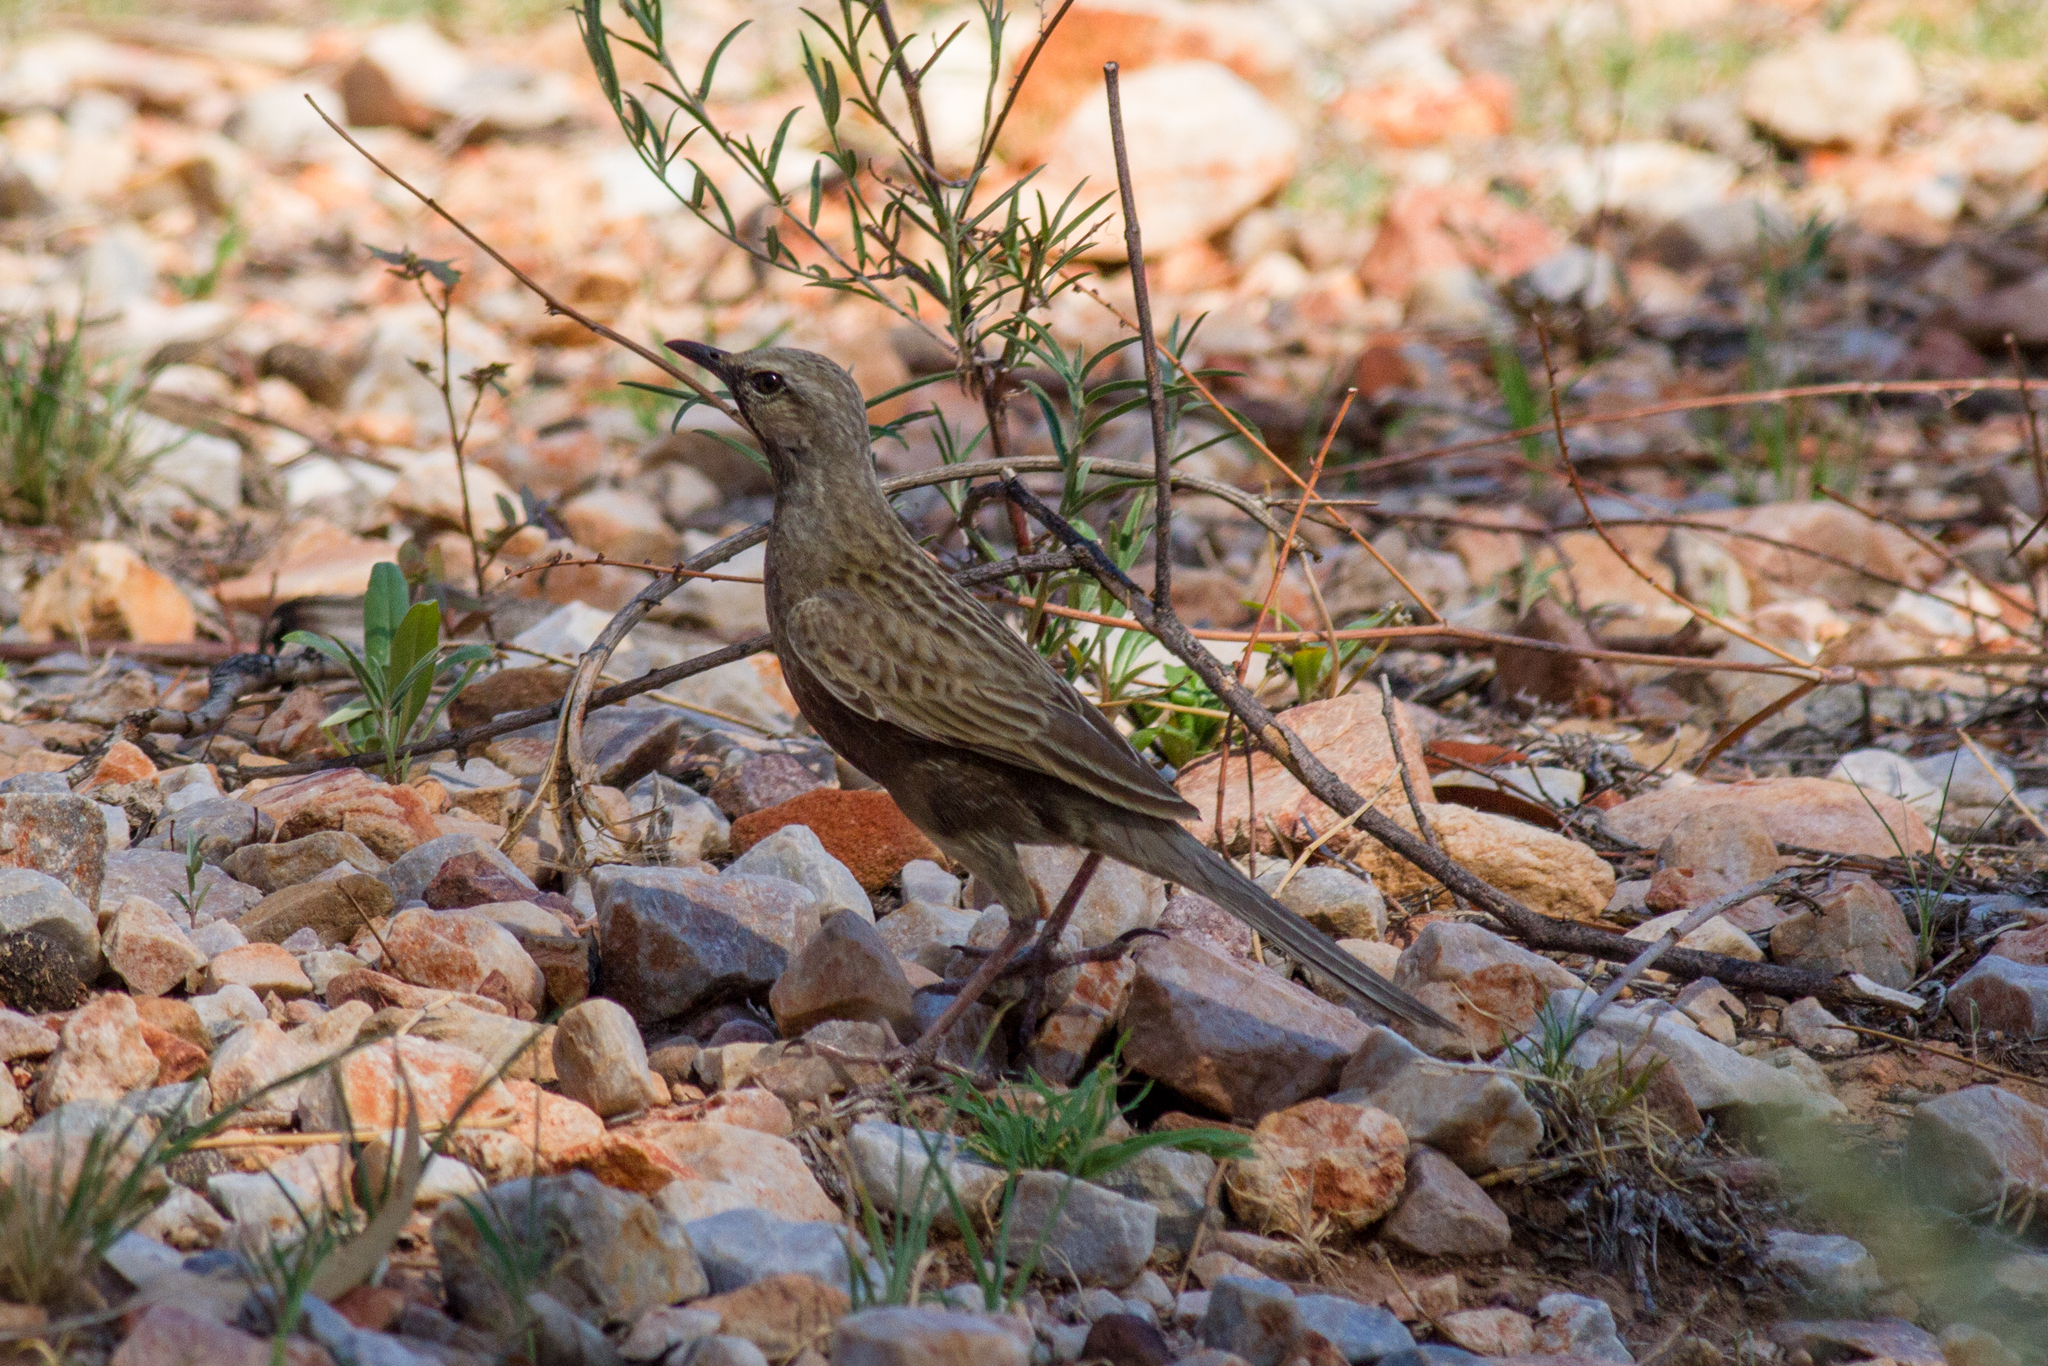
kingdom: Animalia
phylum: Chordata
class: Aves
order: Passeriformes
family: Locustellidae
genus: Megalurus
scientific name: Megalurus cruralis
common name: Brown songlark
